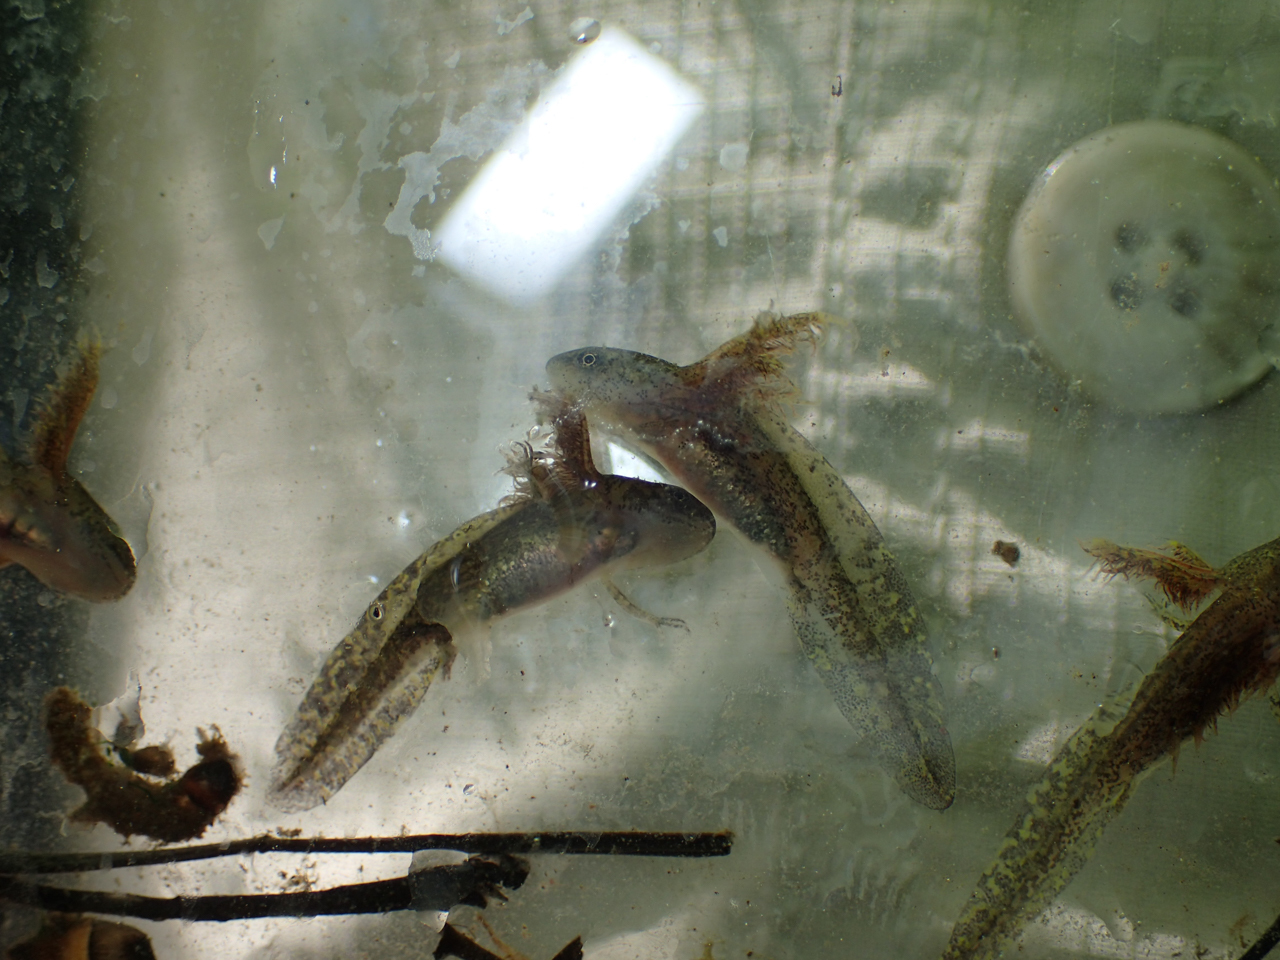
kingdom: Animalia
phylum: Chordata
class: Amphibia
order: Caudata
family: Ambystomatidae
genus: Ambystoma
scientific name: Ambystoma maculatum
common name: Spotted salamander
